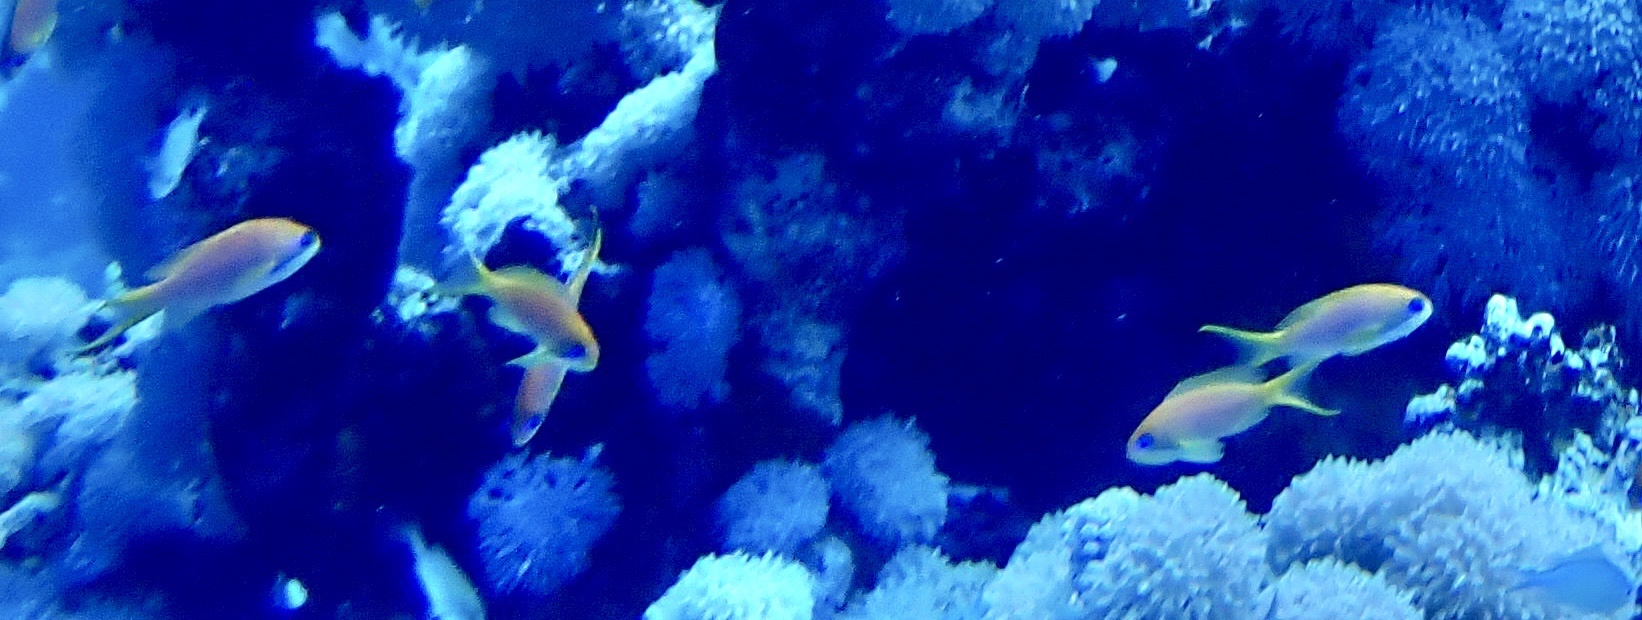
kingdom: Animalia
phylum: Chordata
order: Perciformes
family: Serranidae
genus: Pseudanthias
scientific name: Pseudanthias squamipinnis
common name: Scalefin anthias
